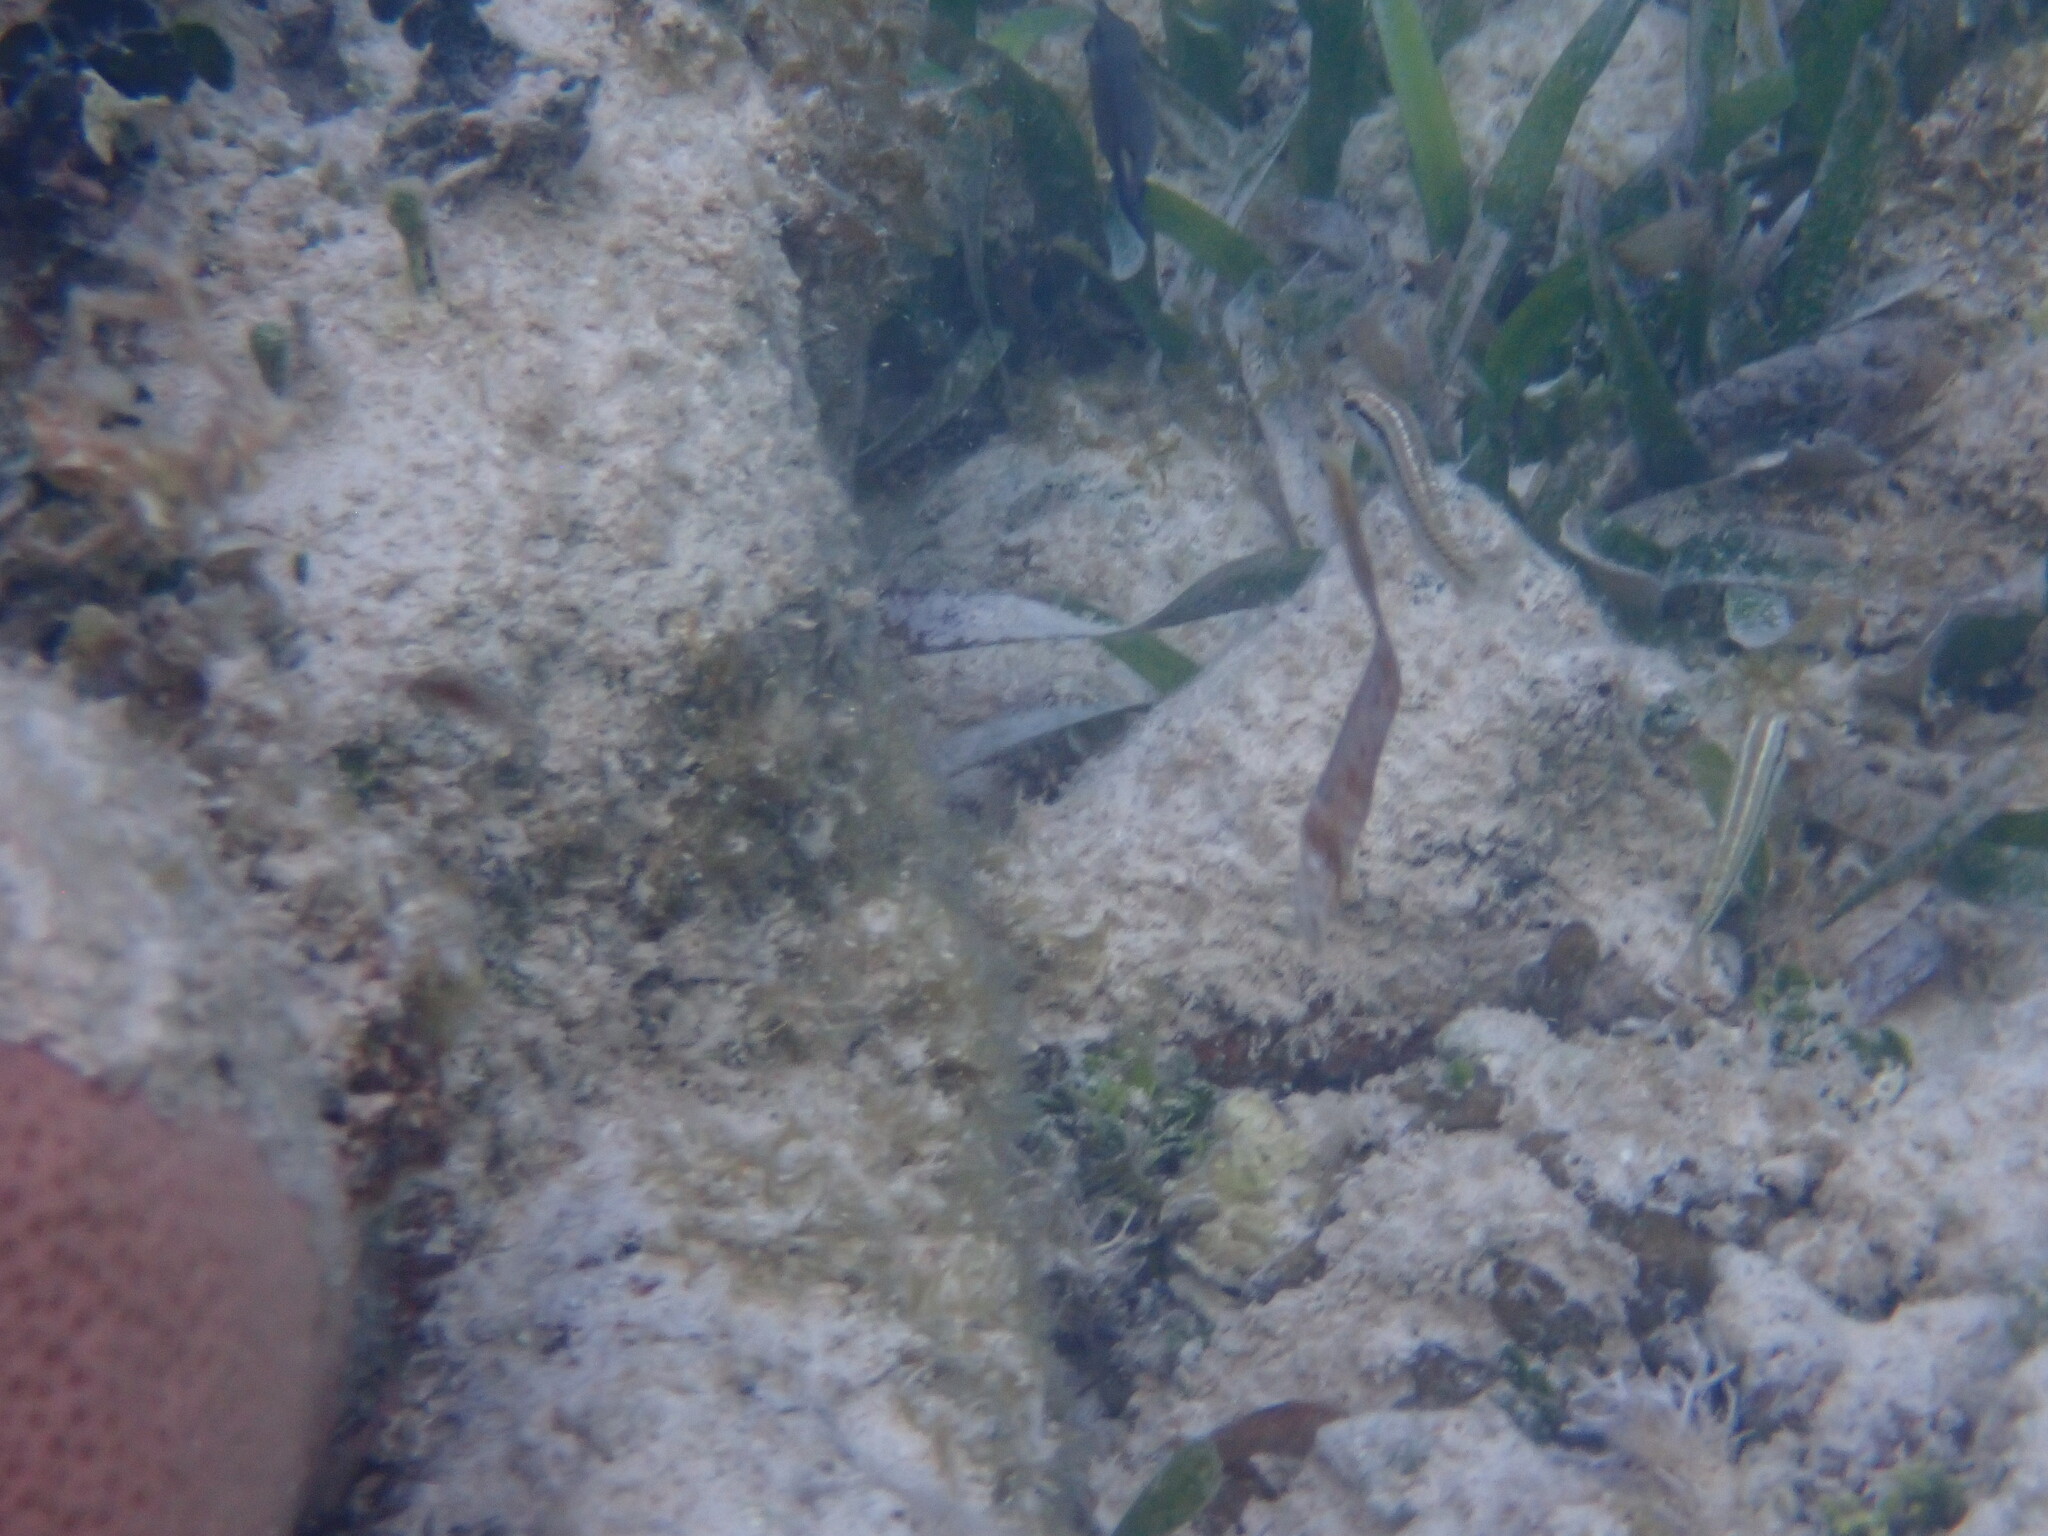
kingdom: Animalia
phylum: Chordata
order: Perciformes
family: Labridae
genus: Halichoeres
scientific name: Halichoeres bivittatus
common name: Slippery dick
